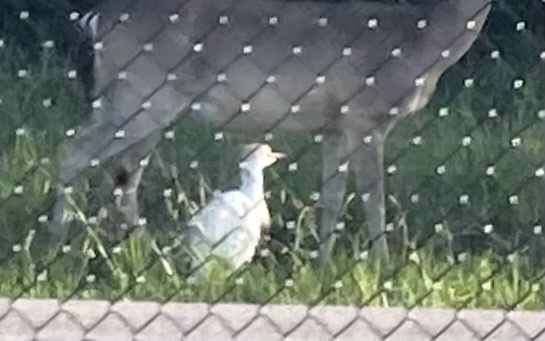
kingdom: Animalia
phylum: Chordata
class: Aves
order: Pelecaniformes
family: Ardeidae
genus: Bubulcus
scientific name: Bubulcus ibis
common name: Cattle egret
